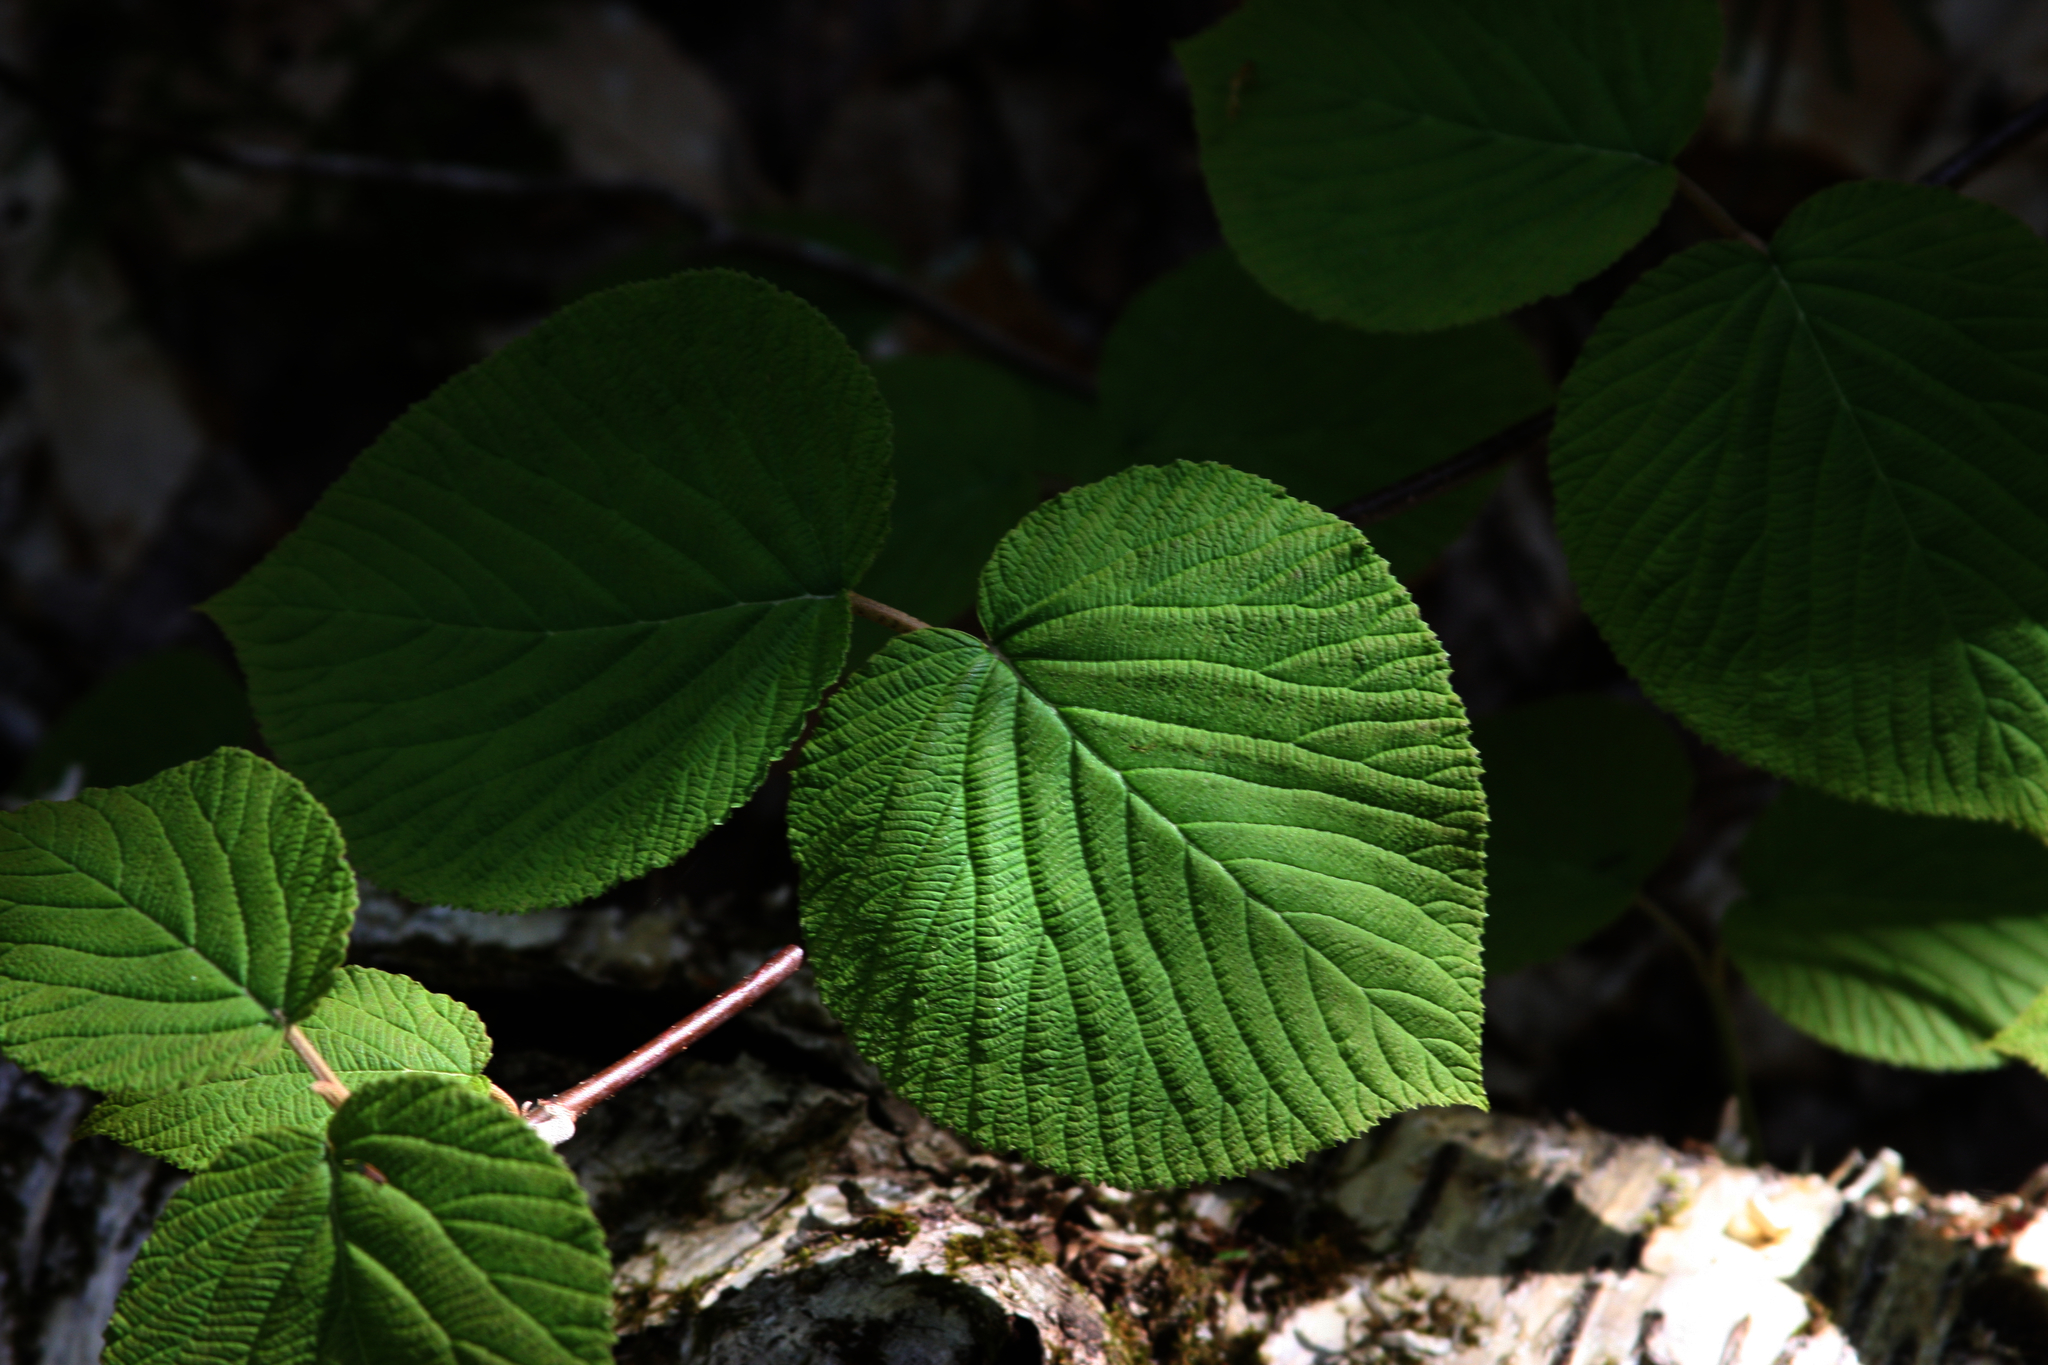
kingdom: Plantae
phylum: Tracheophyta
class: Magnoliopsida
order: Dipsacales
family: Viburnaceae
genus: Viburnum
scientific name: Viburnum lantanoides
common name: Hobblebush
